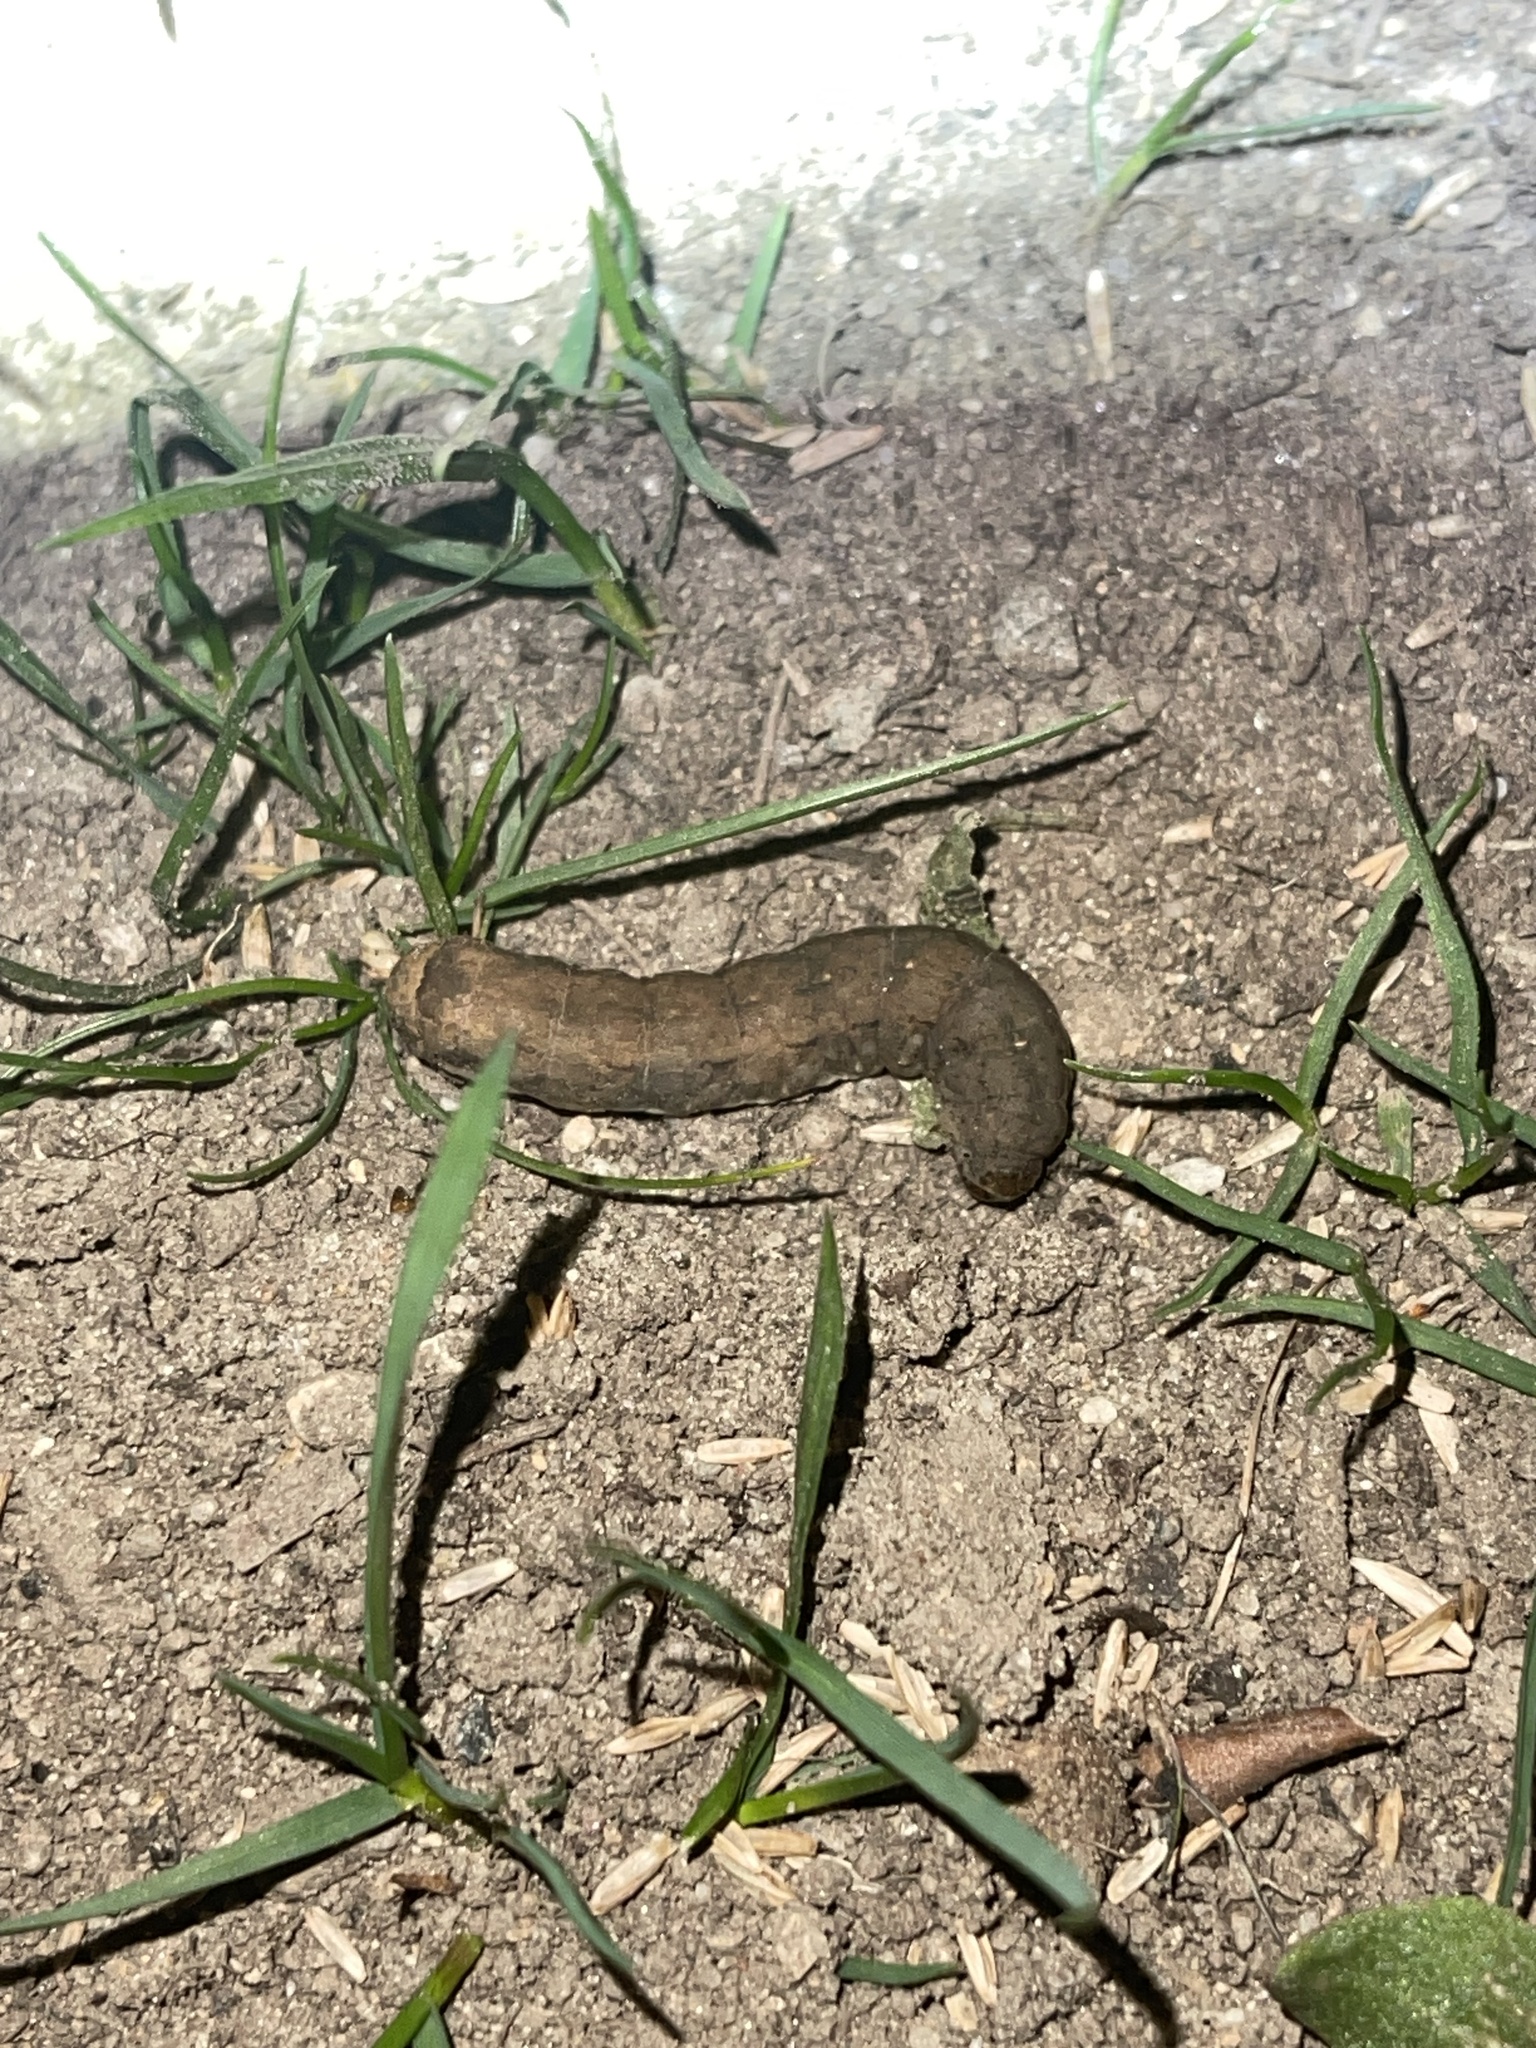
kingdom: Animalia
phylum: Arthropoda
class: Insecta
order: Lepidoptera
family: Noctuidae
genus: Peridroma
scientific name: Peridroma saucia
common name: Pearly underwing
